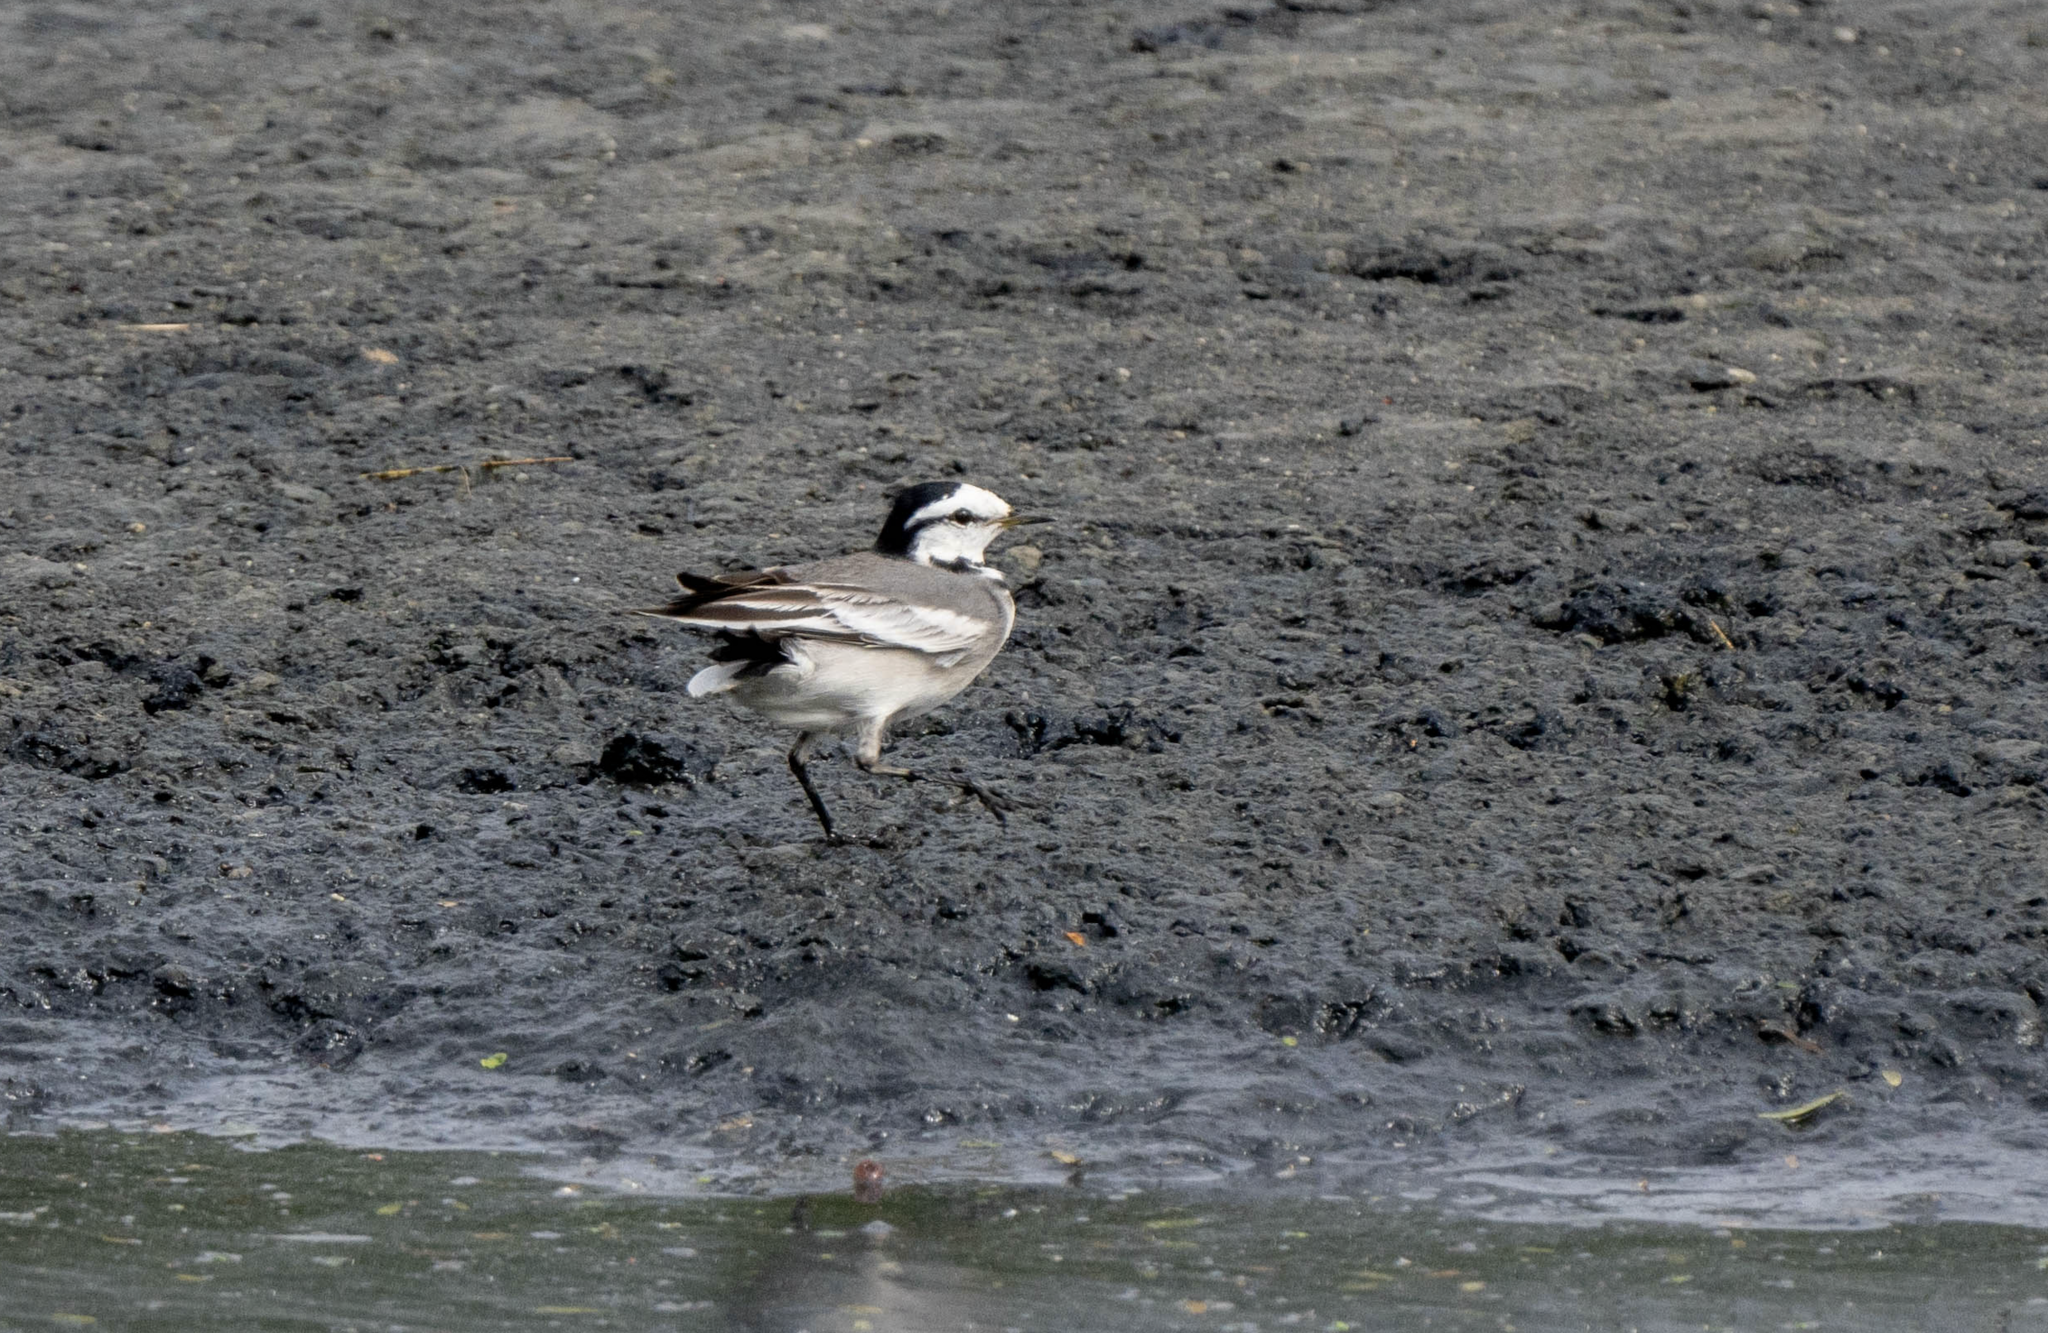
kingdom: Animalia
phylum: Chordata
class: Aves
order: Passeriformes
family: Motacillidae
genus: Motacilla
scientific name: Motacilla alba
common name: White wagtail
